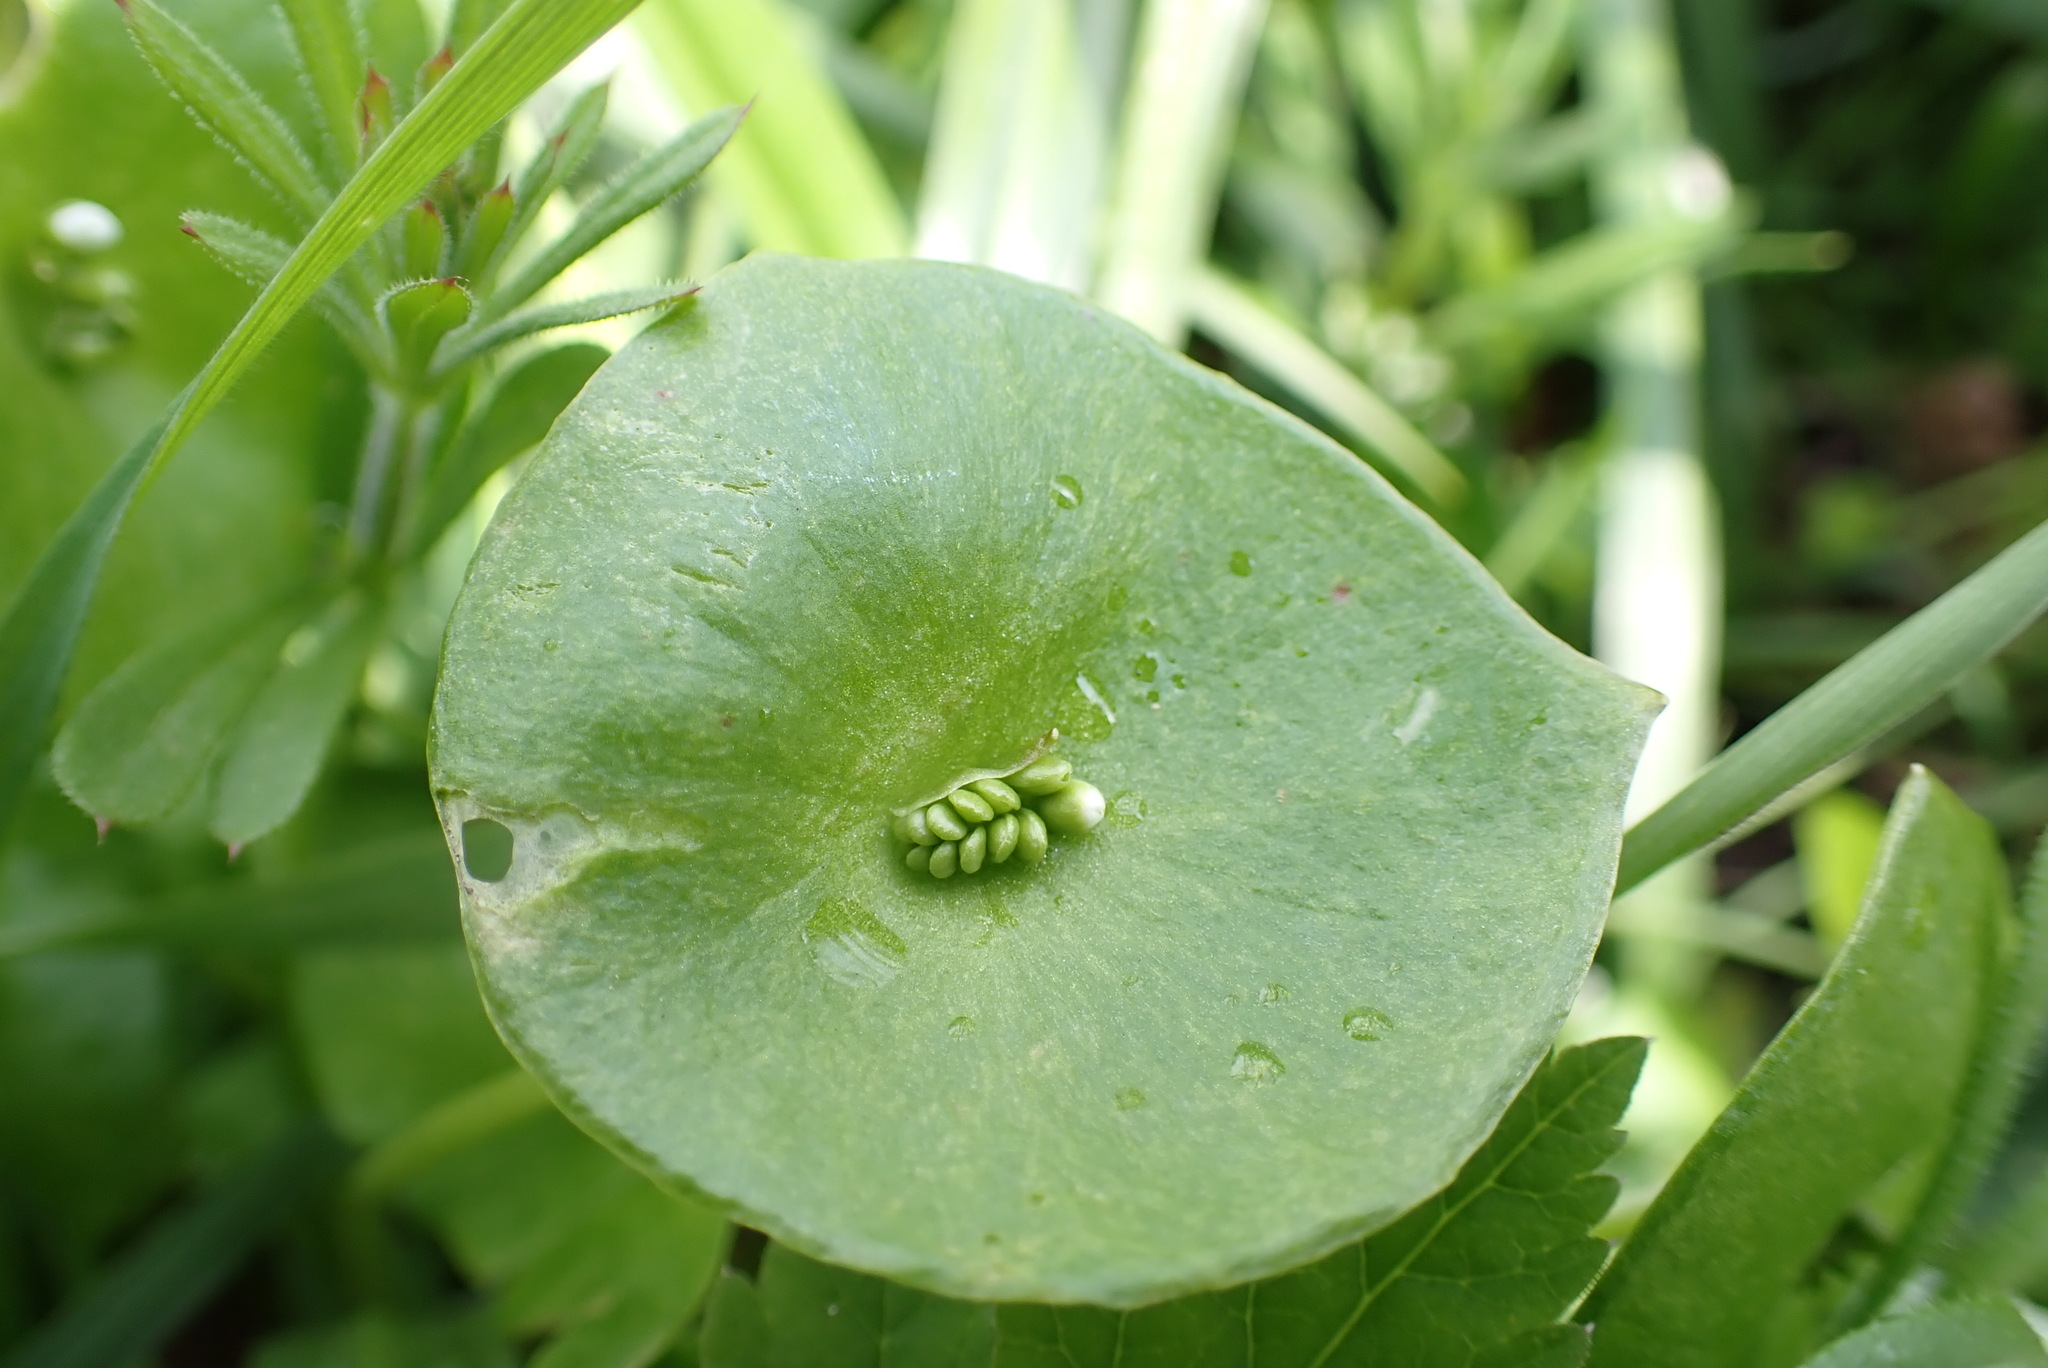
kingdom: Plantae
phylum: Tracheophyta
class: Magnoliopsida
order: Caryophyllales
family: Montiaceae
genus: Claytonia
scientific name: Claytonia perfoliata
